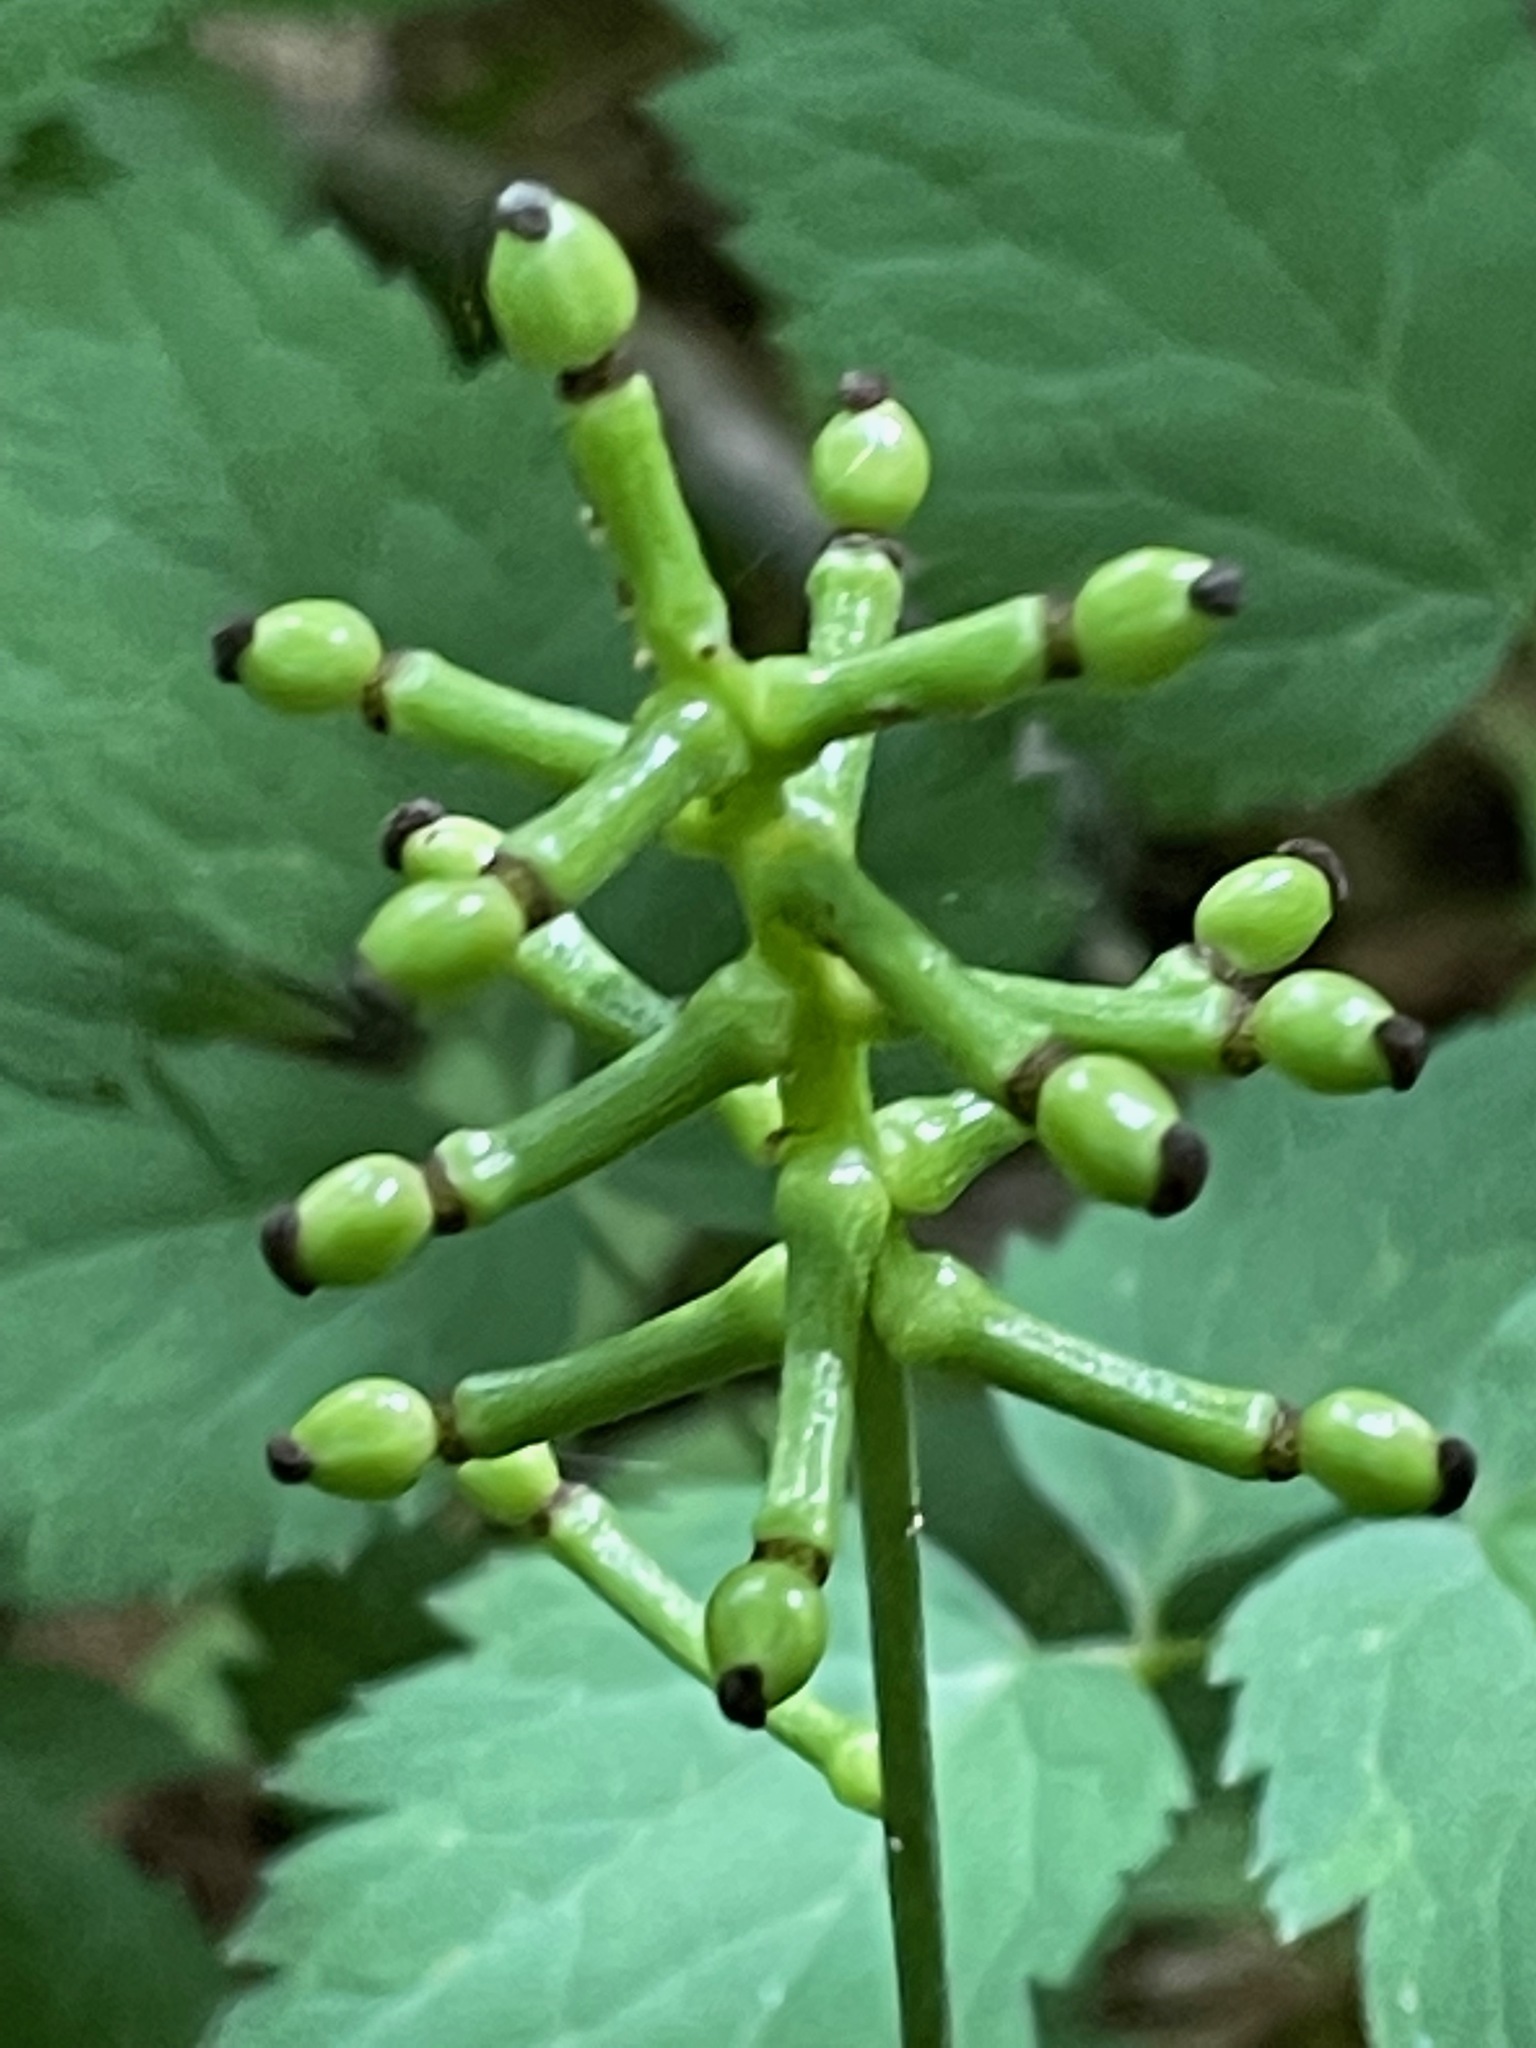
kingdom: Plantae
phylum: Tracheophyta
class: Magnoliopsida
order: Ranunculales
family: Ranunculaceae
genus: Actaea
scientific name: Actaea pachypoda
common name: Doll's-eyes
